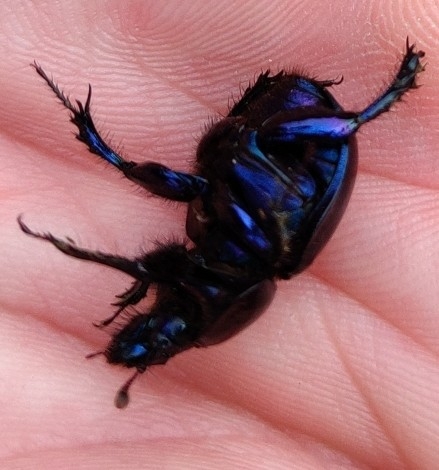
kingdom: Animalia
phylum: Arthropoda
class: Insecta
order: Coleoptera
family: Geotrupidae
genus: Anoplotrupes
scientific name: Anoplotrupes stercorosus
